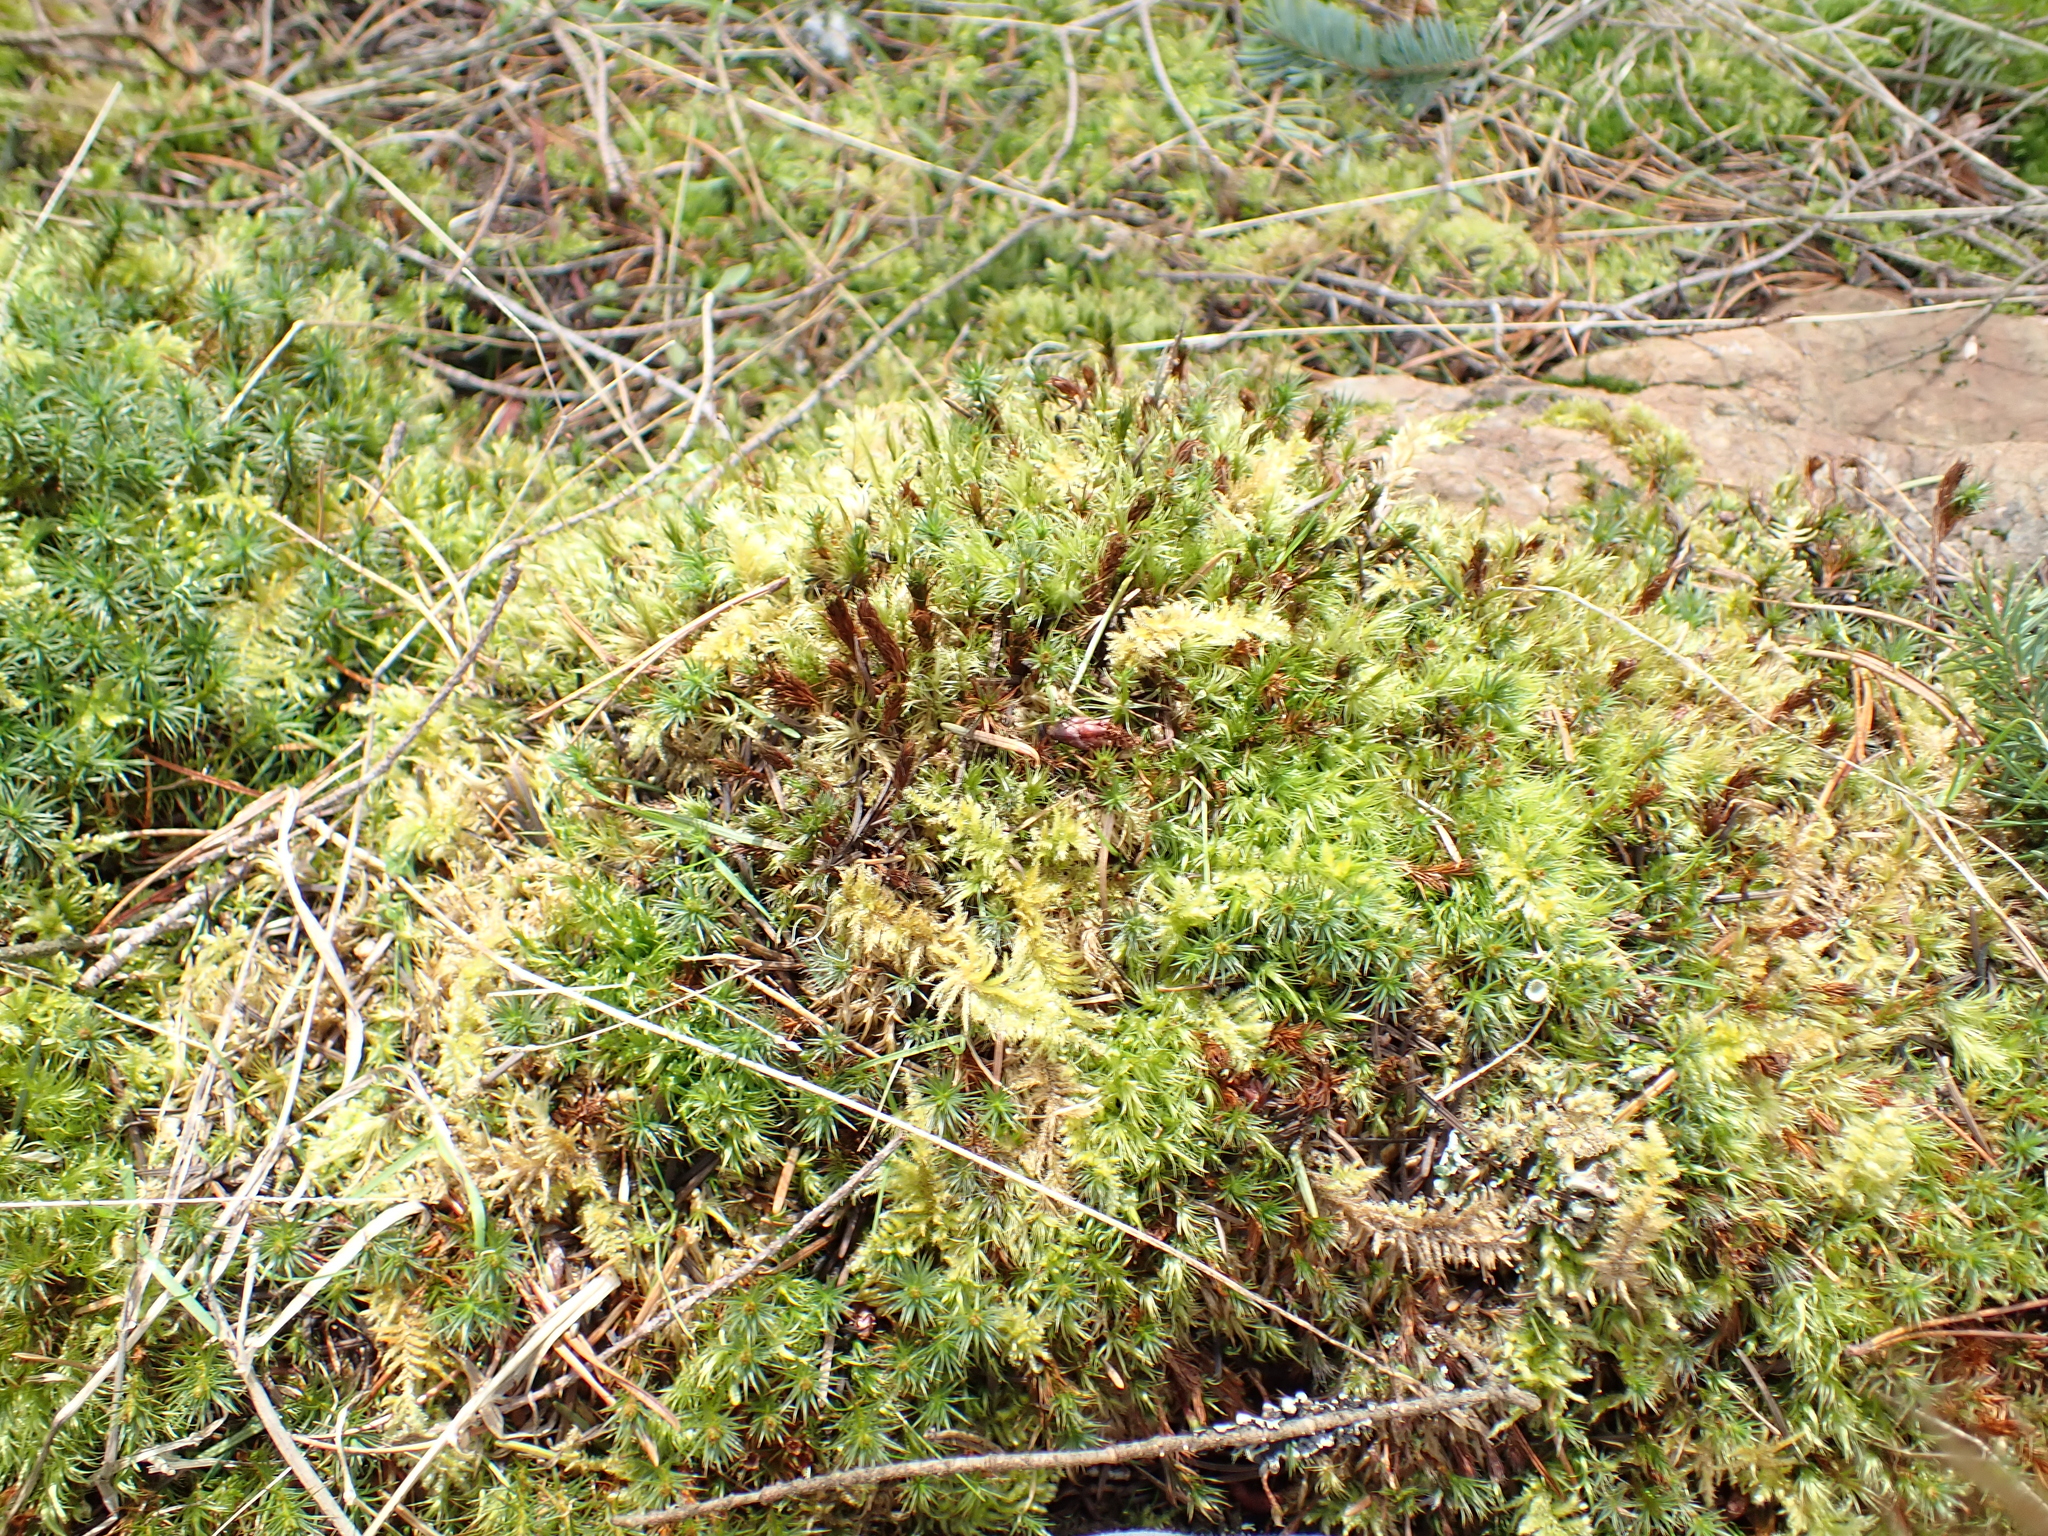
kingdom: Plantae
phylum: Bryophyta
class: Polytrichopsida
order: Polytrichales
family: Polytrichaceae
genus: Polytrichum
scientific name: Polytrichum juniperinum
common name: Juniper haircap moss
